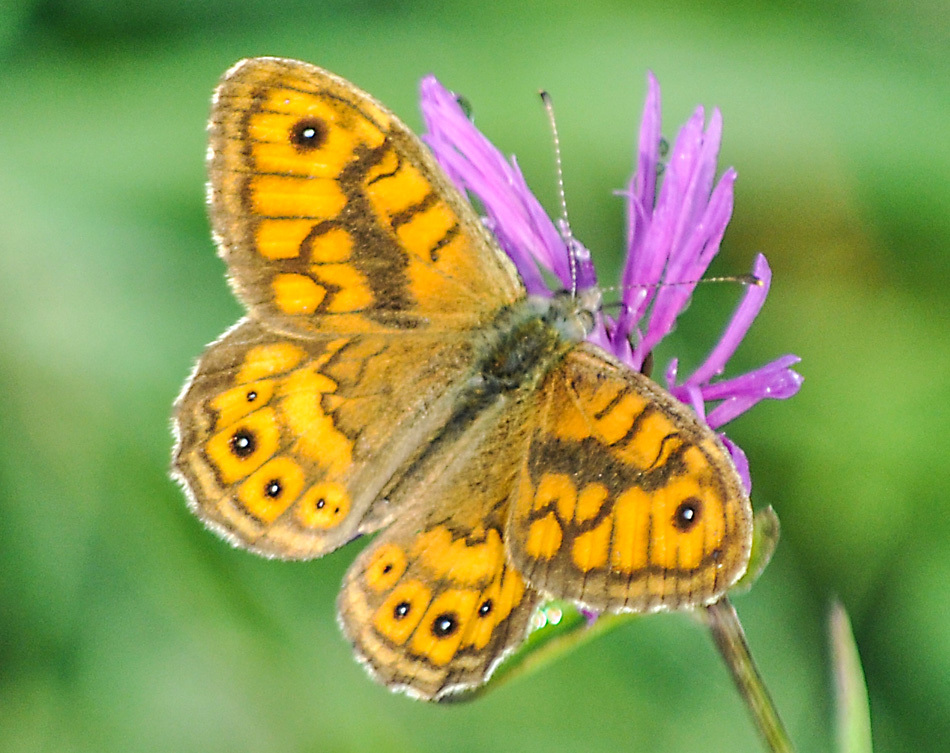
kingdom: Animalia
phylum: Arthropoda
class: Insecta
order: Lepidoptera
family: Nymphalidae
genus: Pararge
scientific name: Pararge Lasiommata megera
